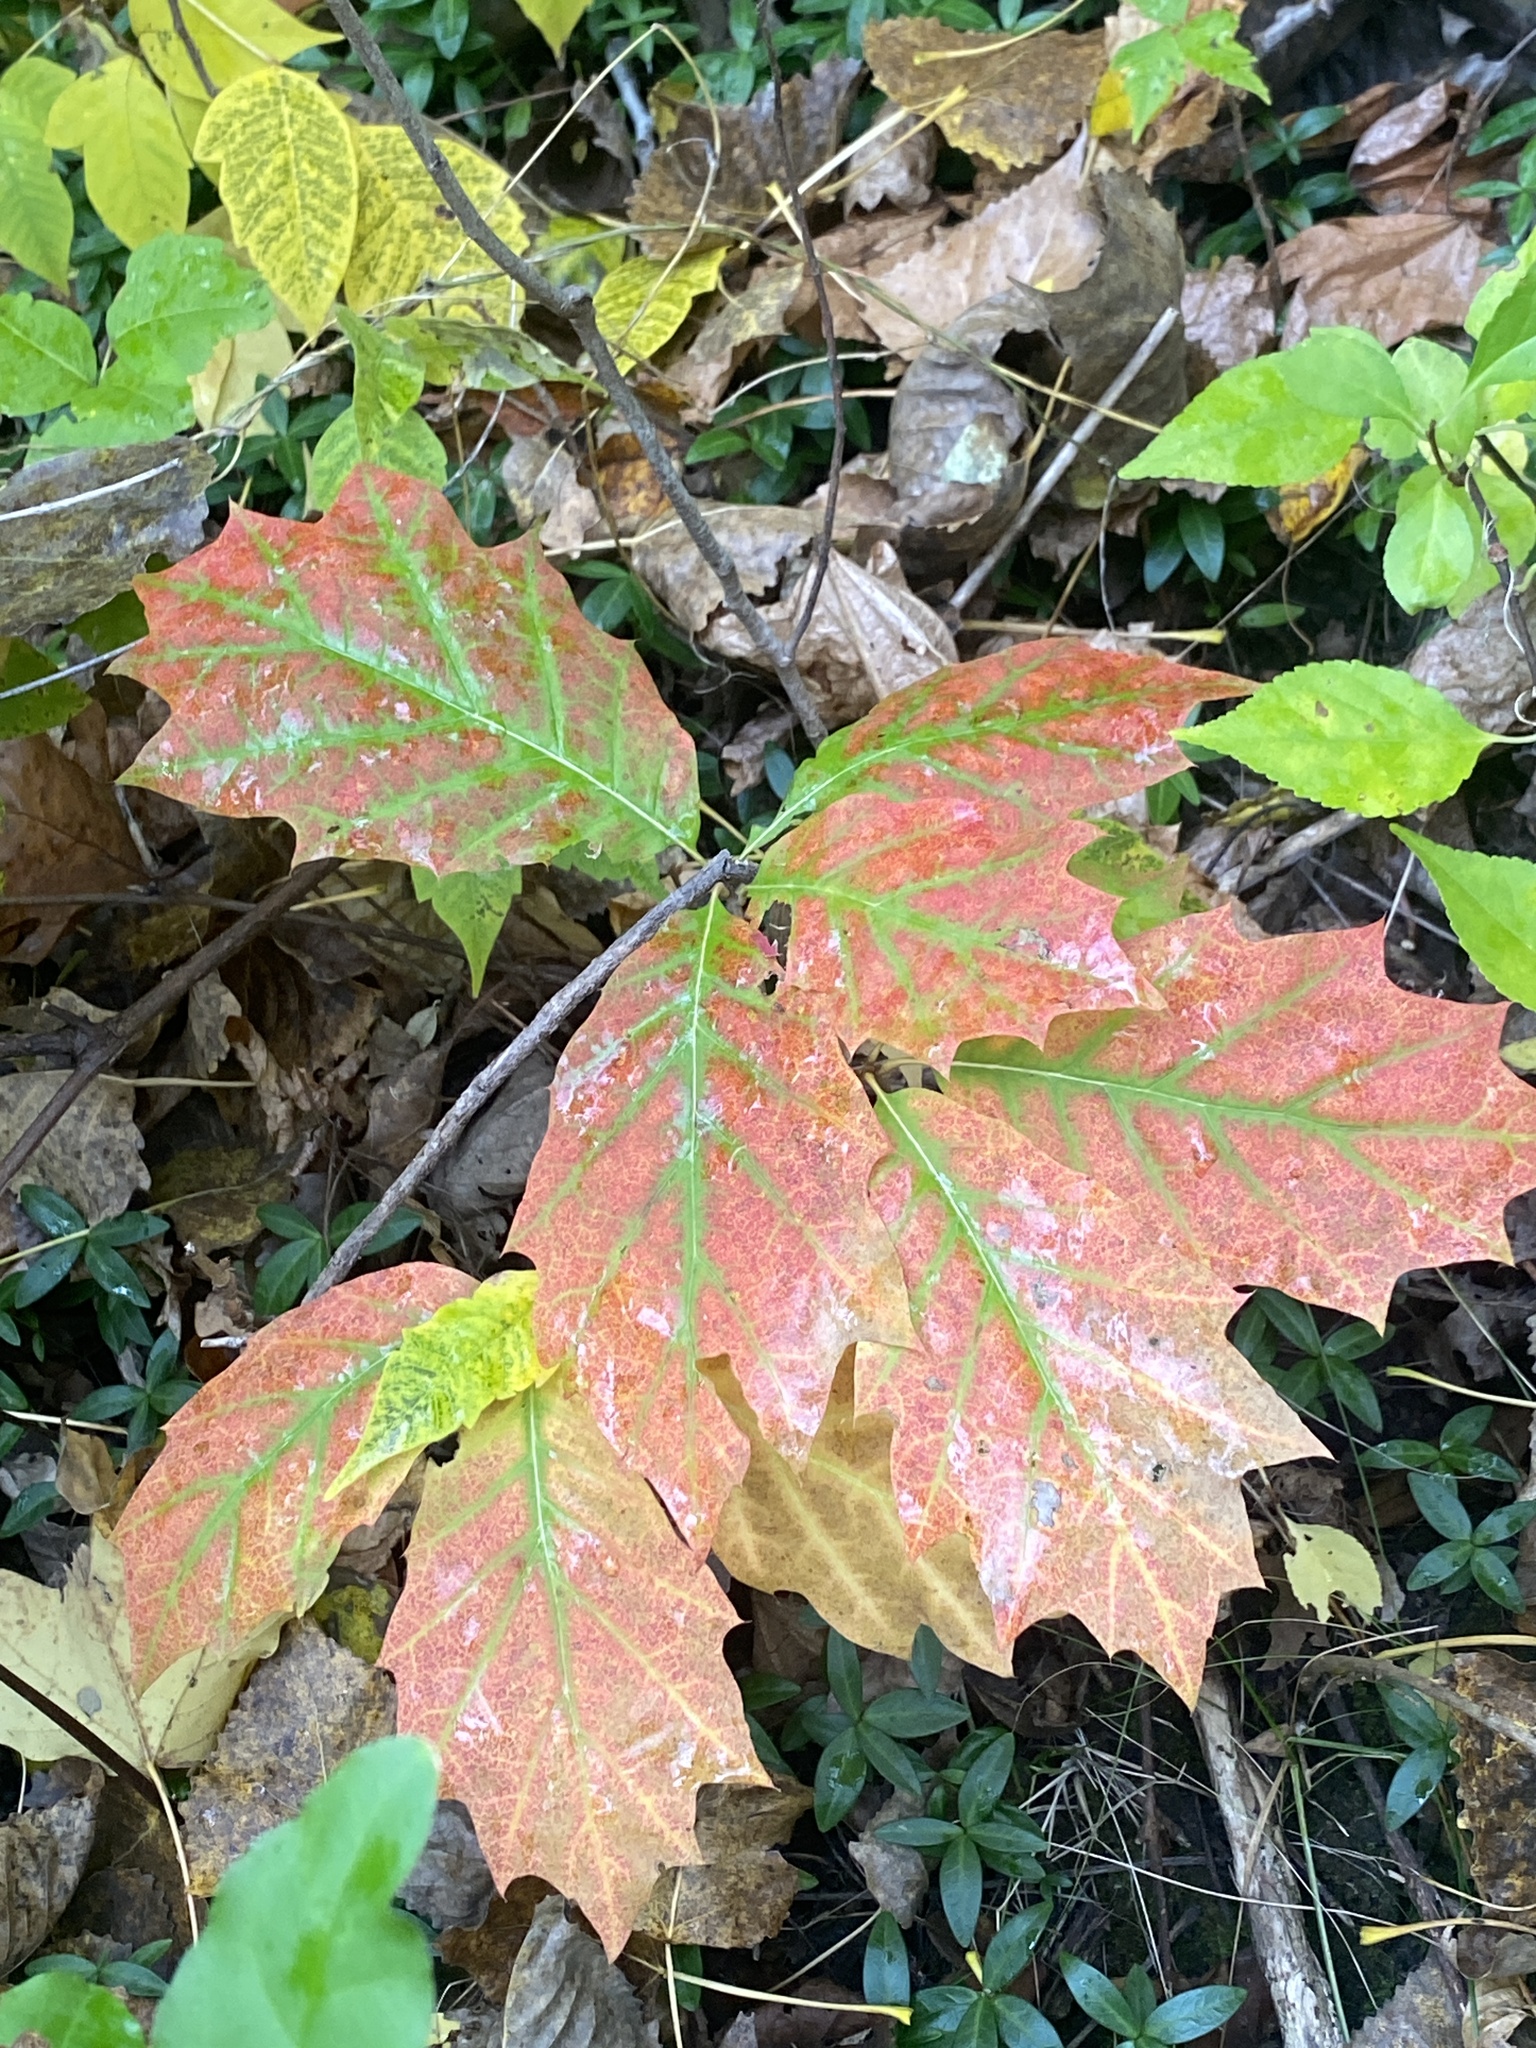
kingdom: Plantae
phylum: Tracheophyta
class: Magnoliopsida
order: Fagales
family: Fagaceae
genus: Quercus
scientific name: Quercus rubra
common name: Red oak
